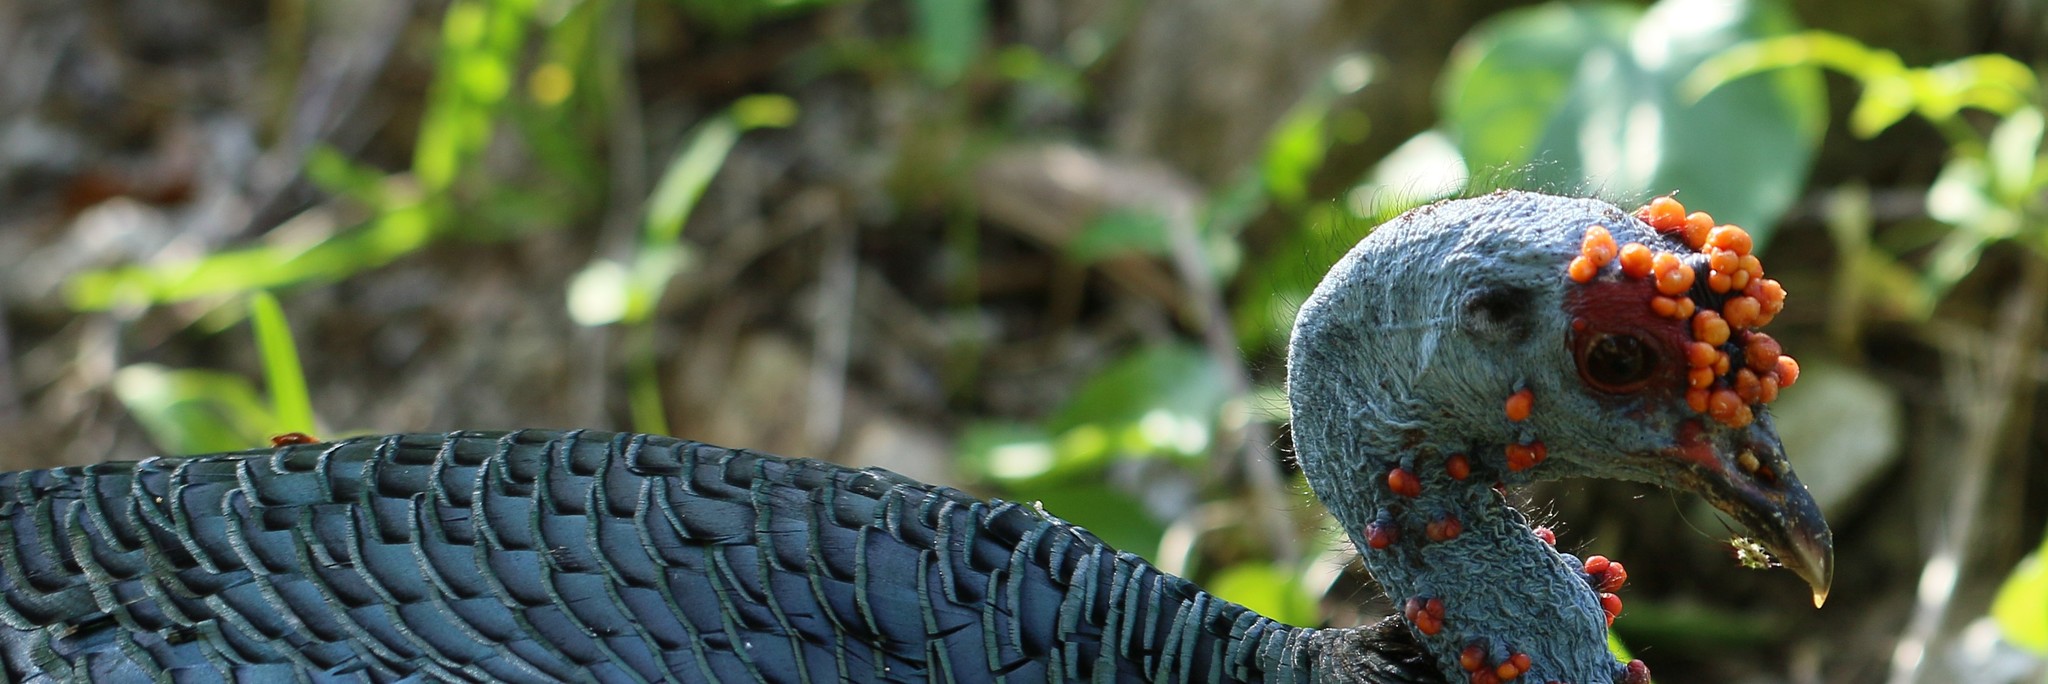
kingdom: Animalia
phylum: Chordata
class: Aves
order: Galliformes
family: Phasianidae
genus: Meleagris
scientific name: Meleagris ocellata
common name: Ocellated turkey
